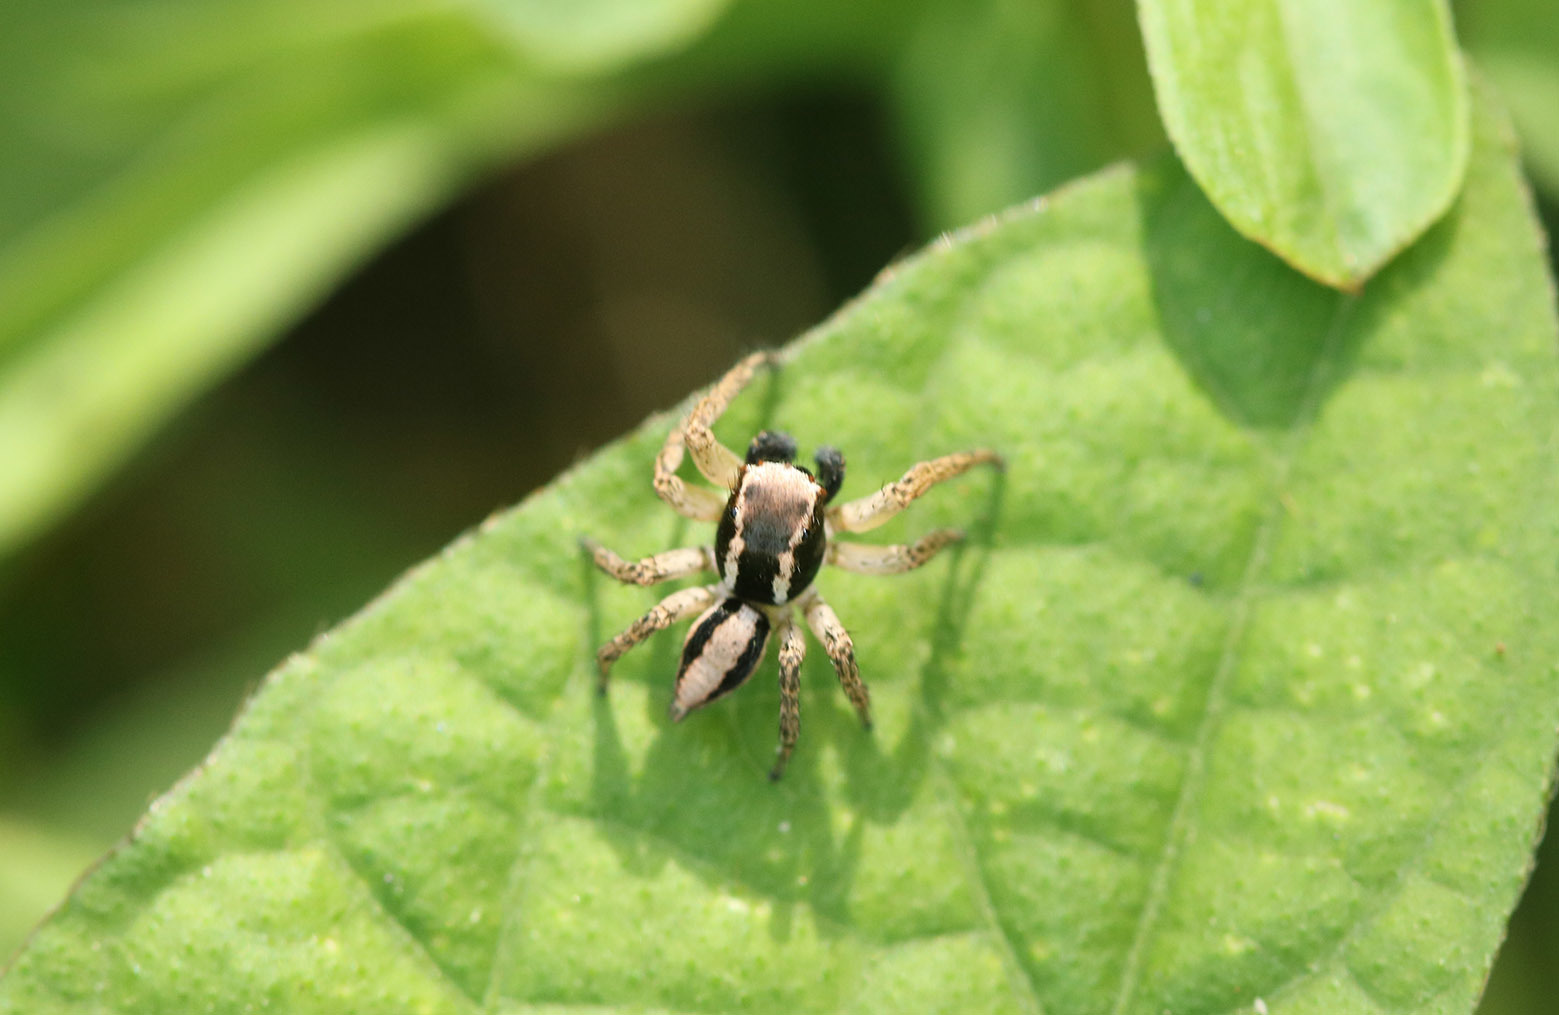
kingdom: Animalia
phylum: Arthropoda
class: Arachnida
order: Araneae
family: Salticidae
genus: Aphirape
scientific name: Aphirape
